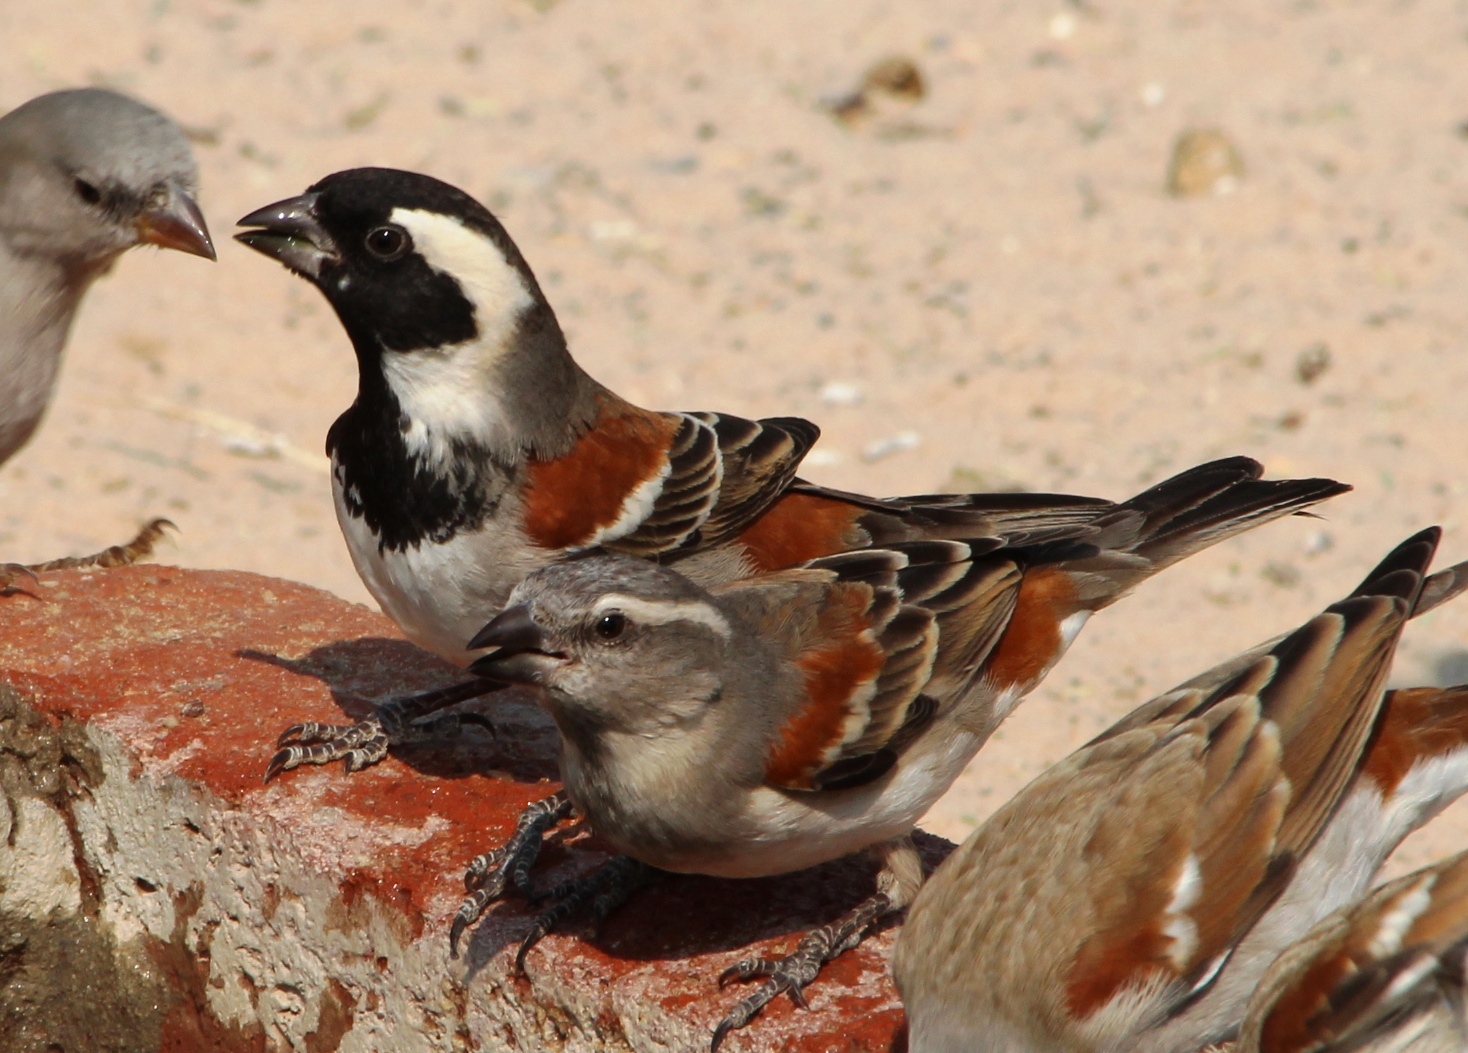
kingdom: Animalia
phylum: Chordata
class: Aves
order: Passeriformes
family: Passeridae
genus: Passer
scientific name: Passer melanurus
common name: Cape sparrow
